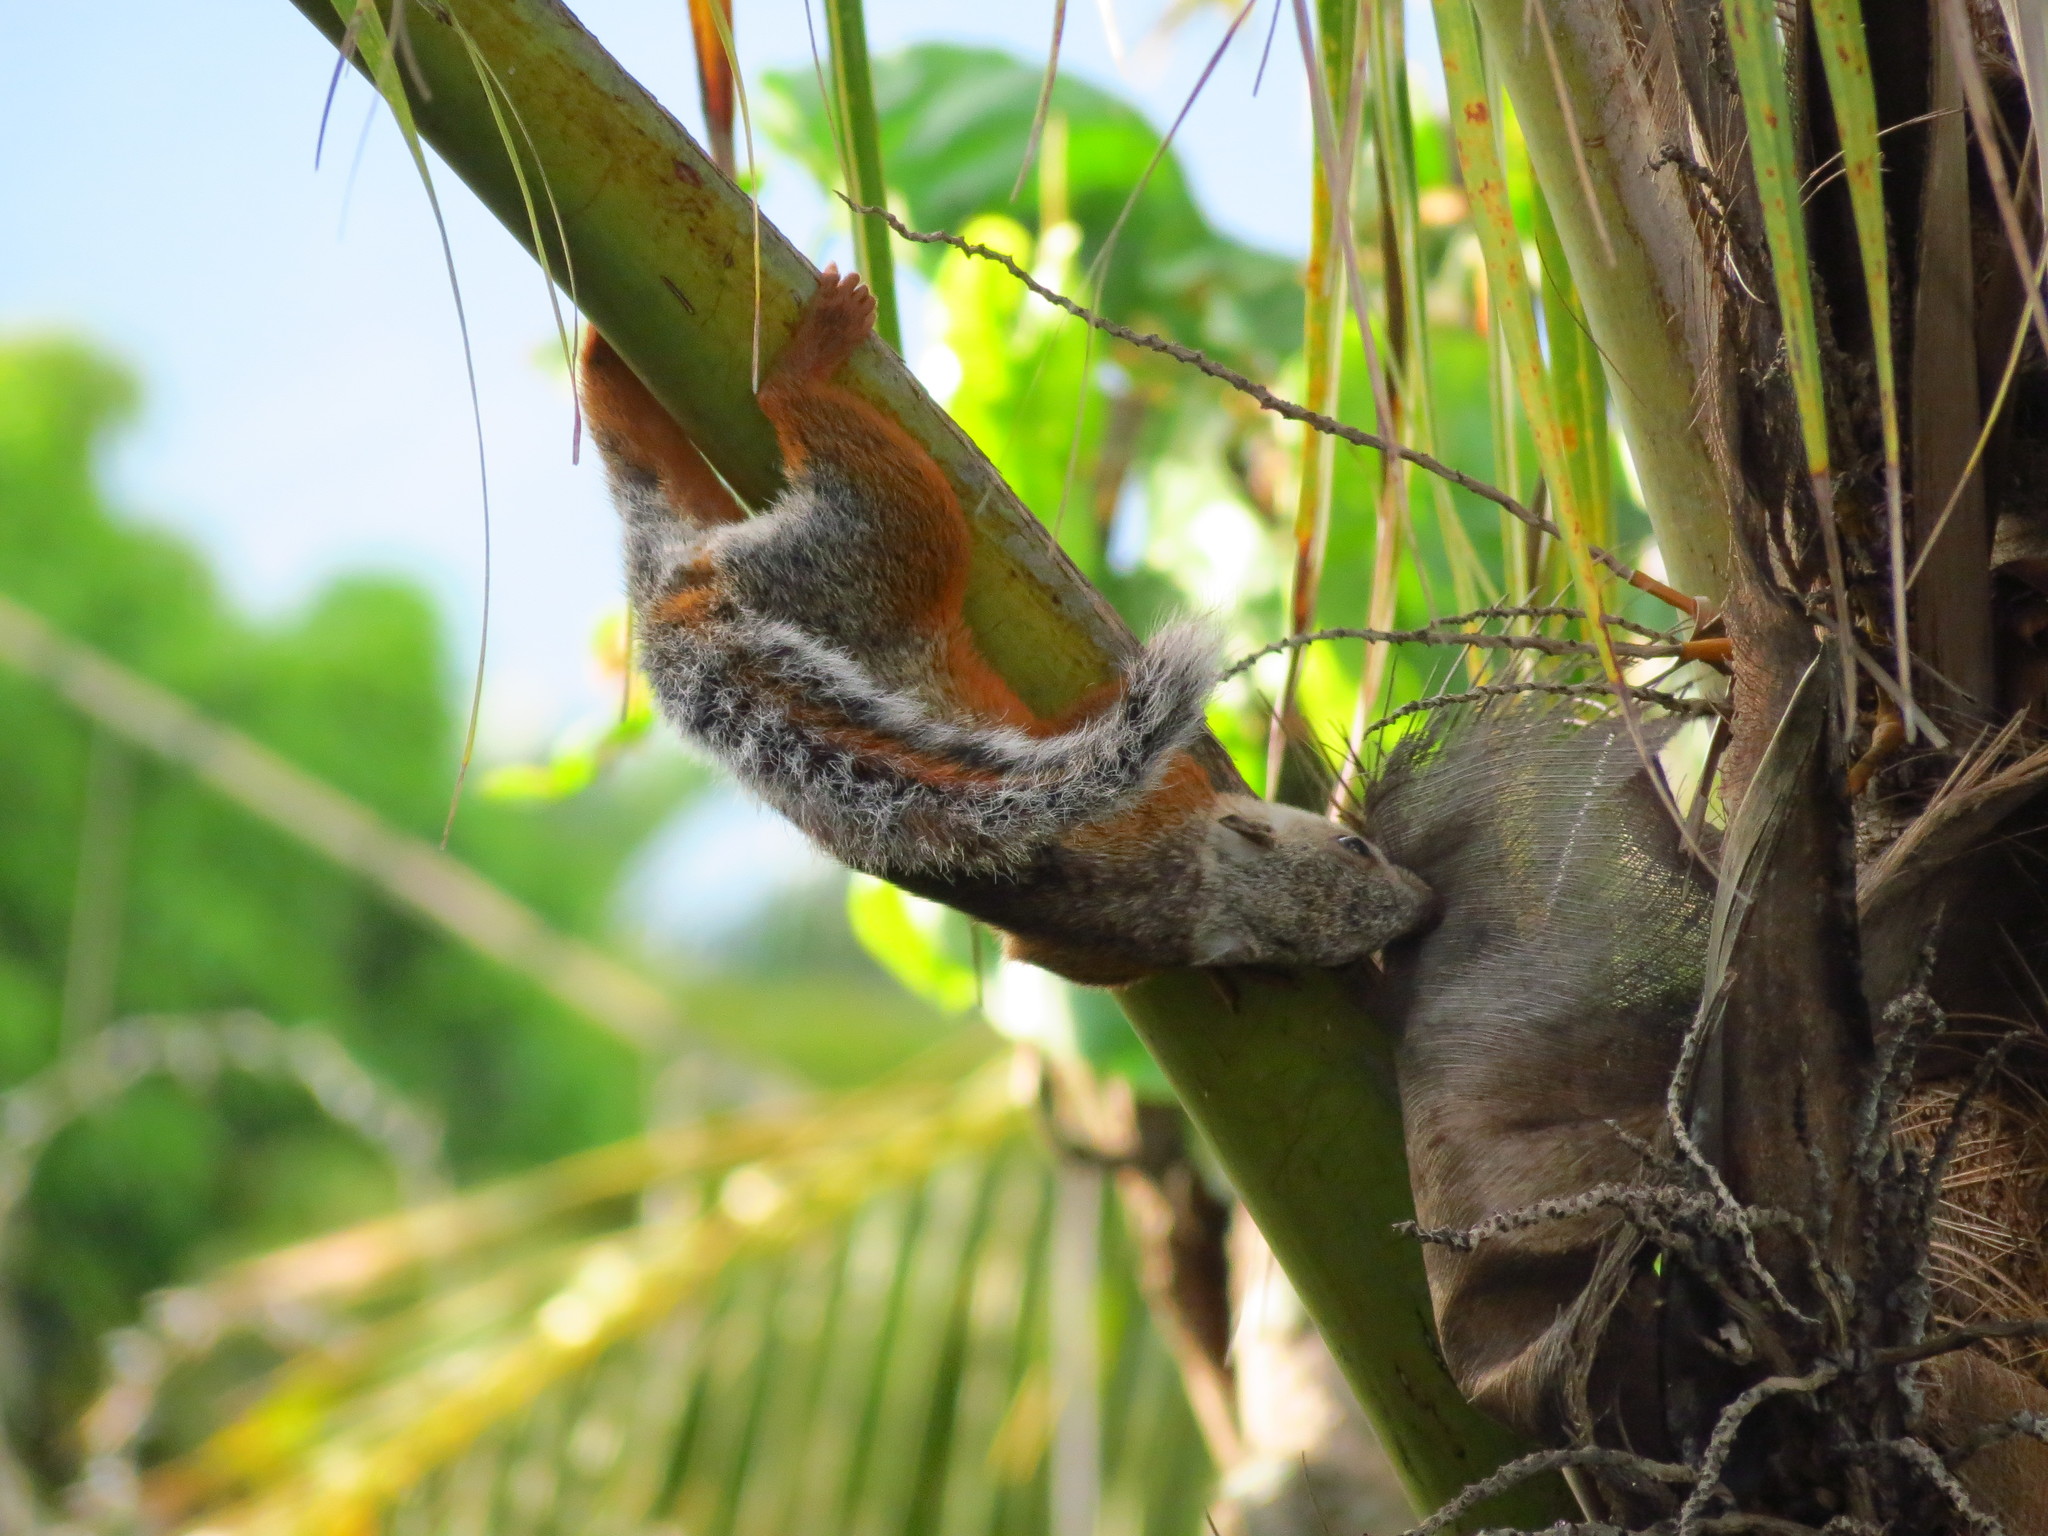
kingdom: Animalia
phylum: Chordata
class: Mammalia
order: Rodentia
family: Sciuridae
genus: Sciurus
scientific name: Sciurus variegatoides
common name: Variegated squirrel
